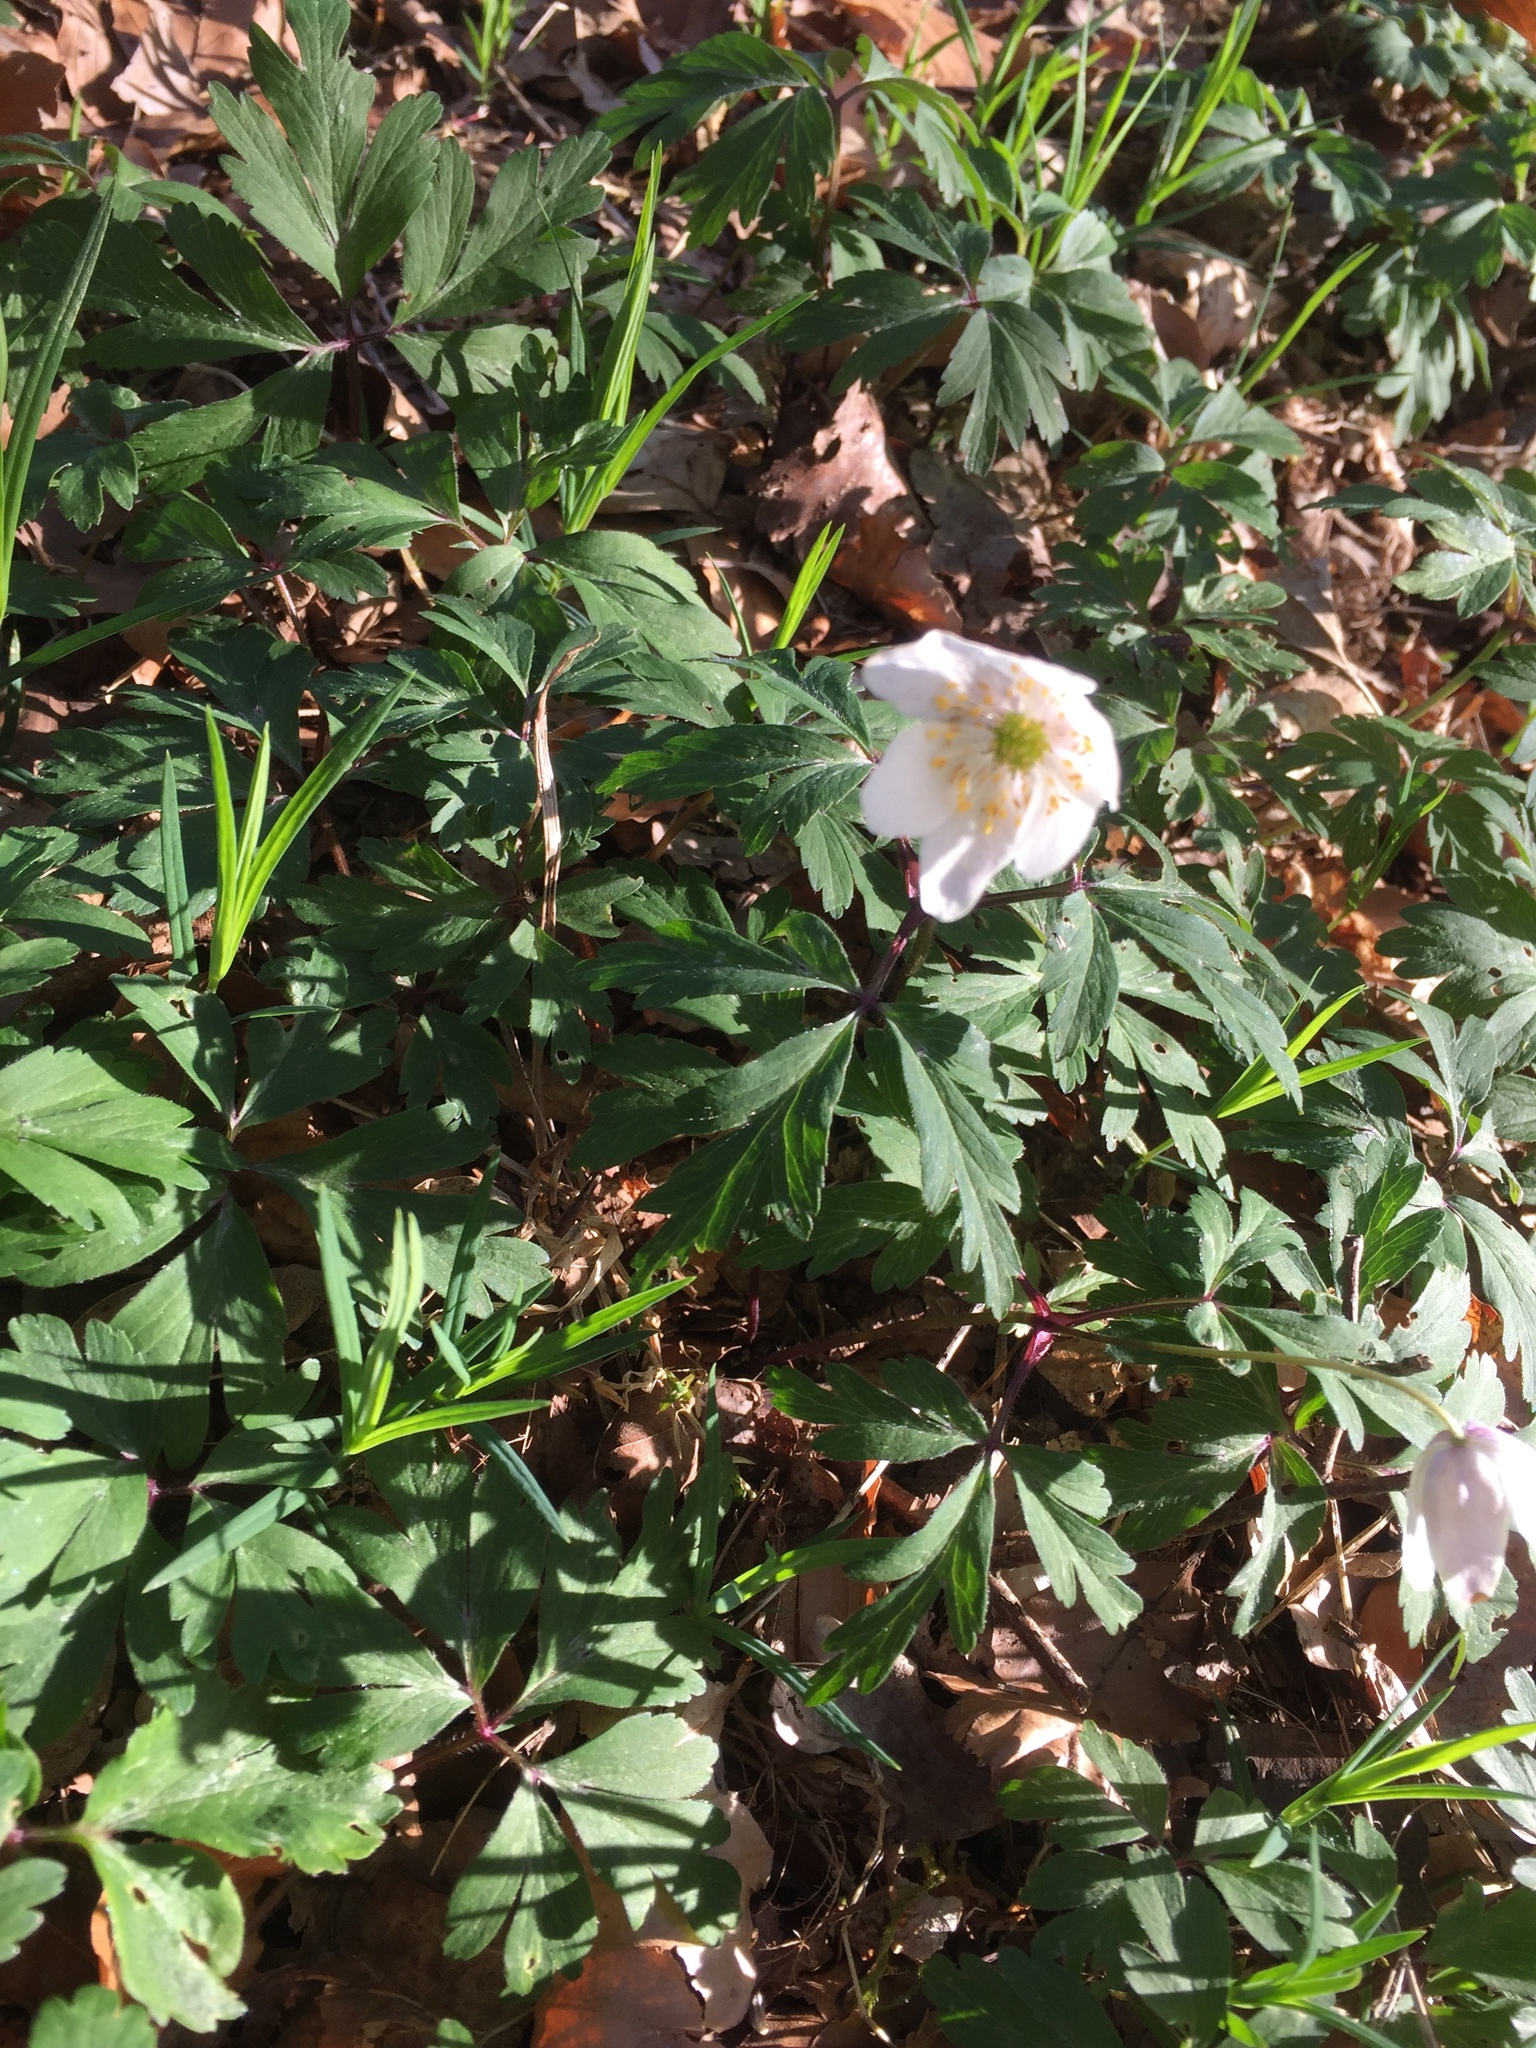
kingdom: Plantae
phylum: Tracheophyta
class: Magnoliopsida
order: Ranunculales
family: Ranunculaceae
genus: Anemone
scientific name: Anemone nemorosa
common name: Wood anemone
